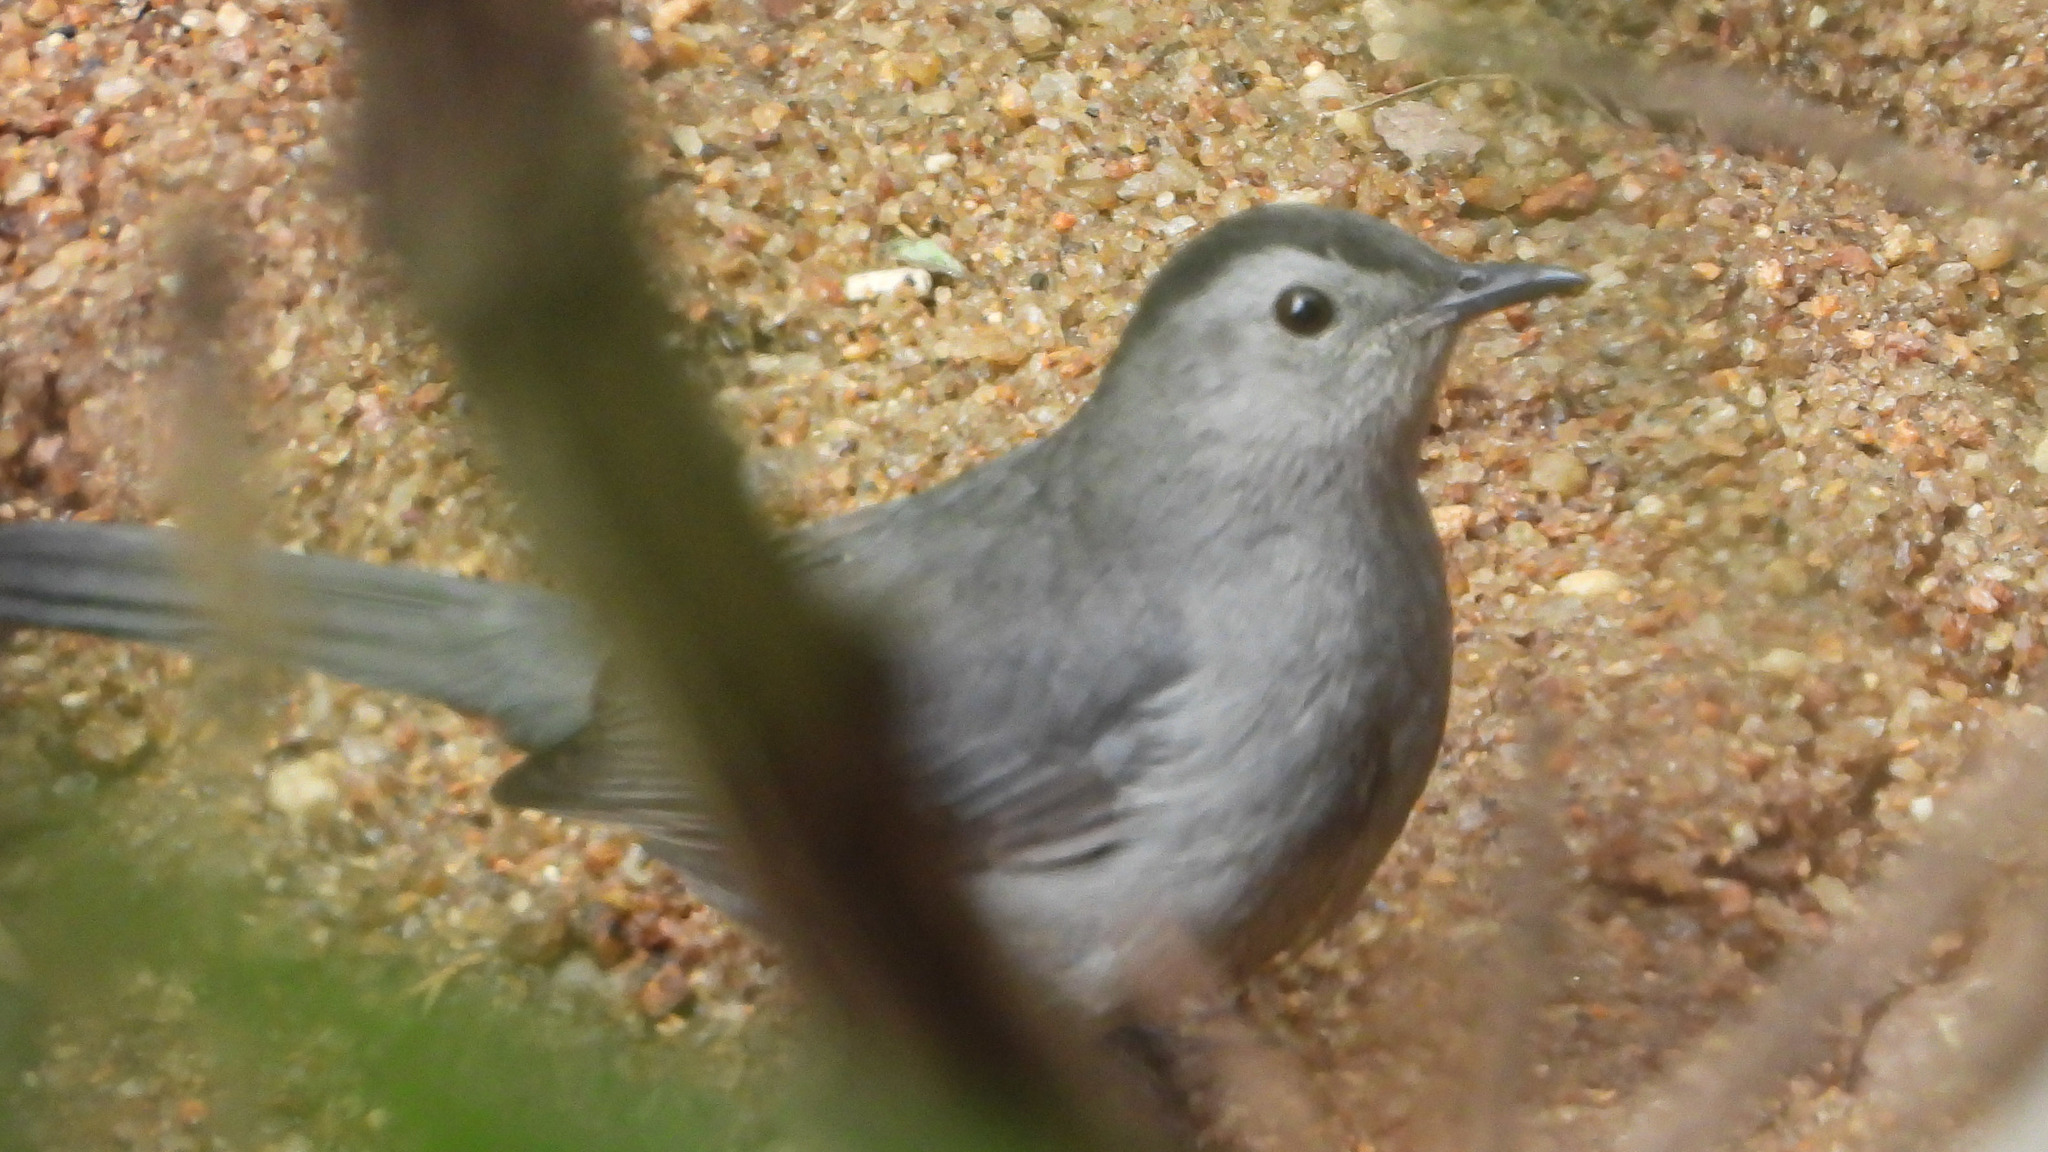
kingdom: Animalia
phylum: Chordata
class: Aves
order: Passeriformes
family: Mimidae
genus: Dumetella
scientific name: Dumetella carolinensis
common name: Gray catbird
